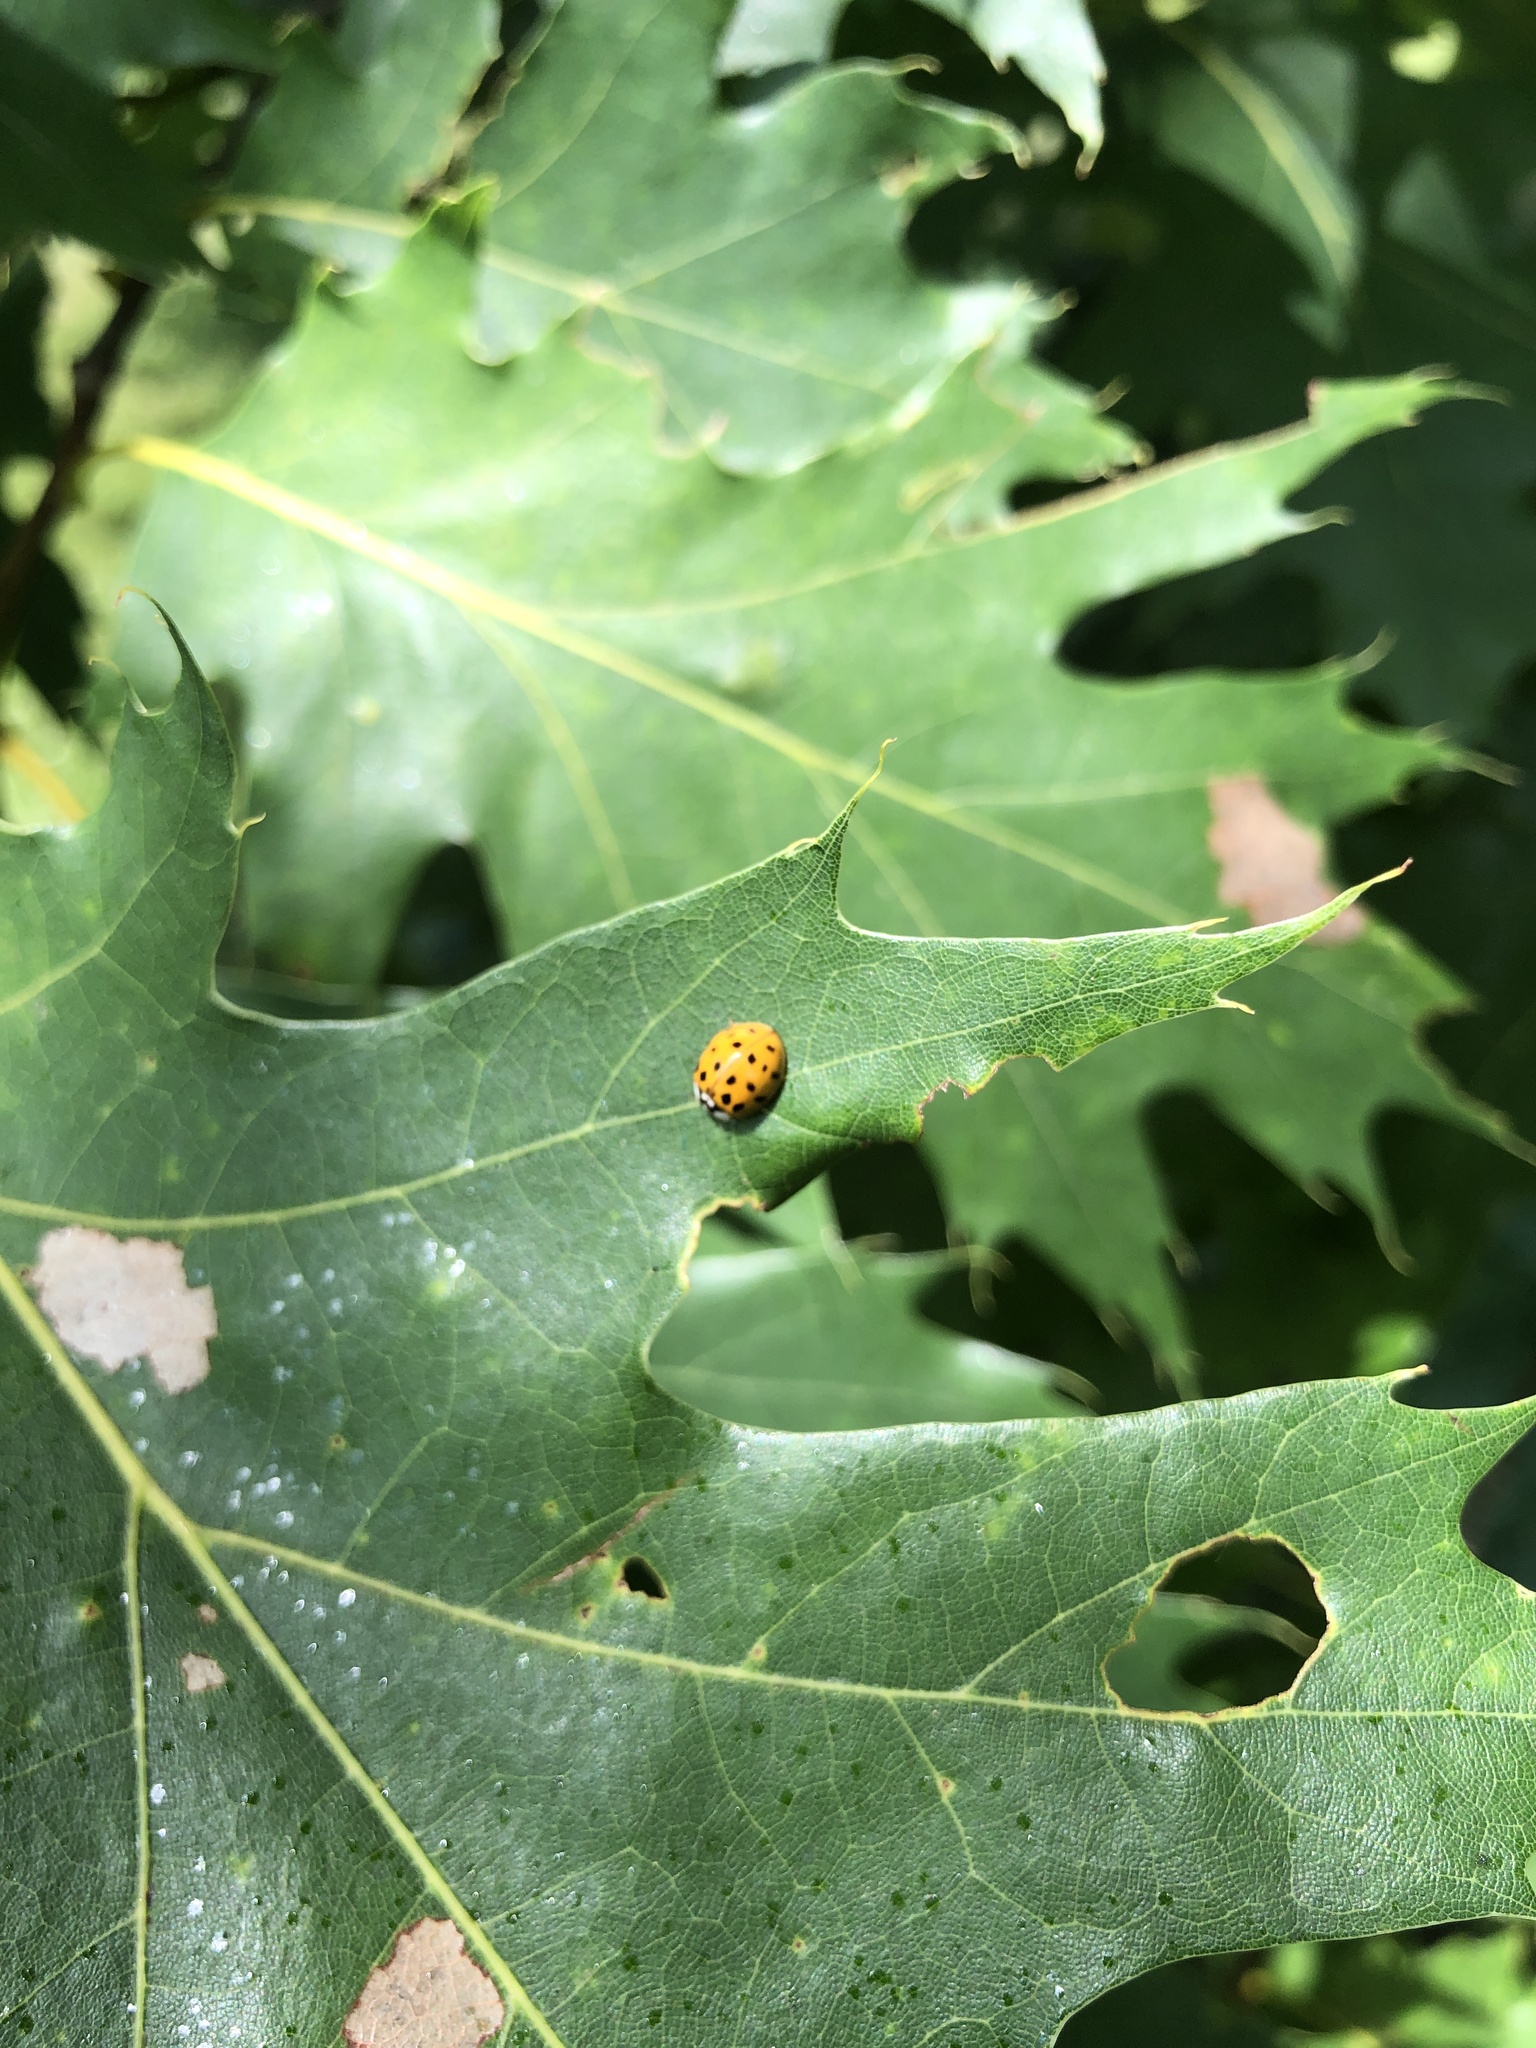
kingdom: Animalia
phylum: Arthropoda
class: Insecta
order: Coleoptera
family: Coccinellidae
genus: Harmonia
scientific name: Harmonia axyridis
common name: Harlequin ladybird
